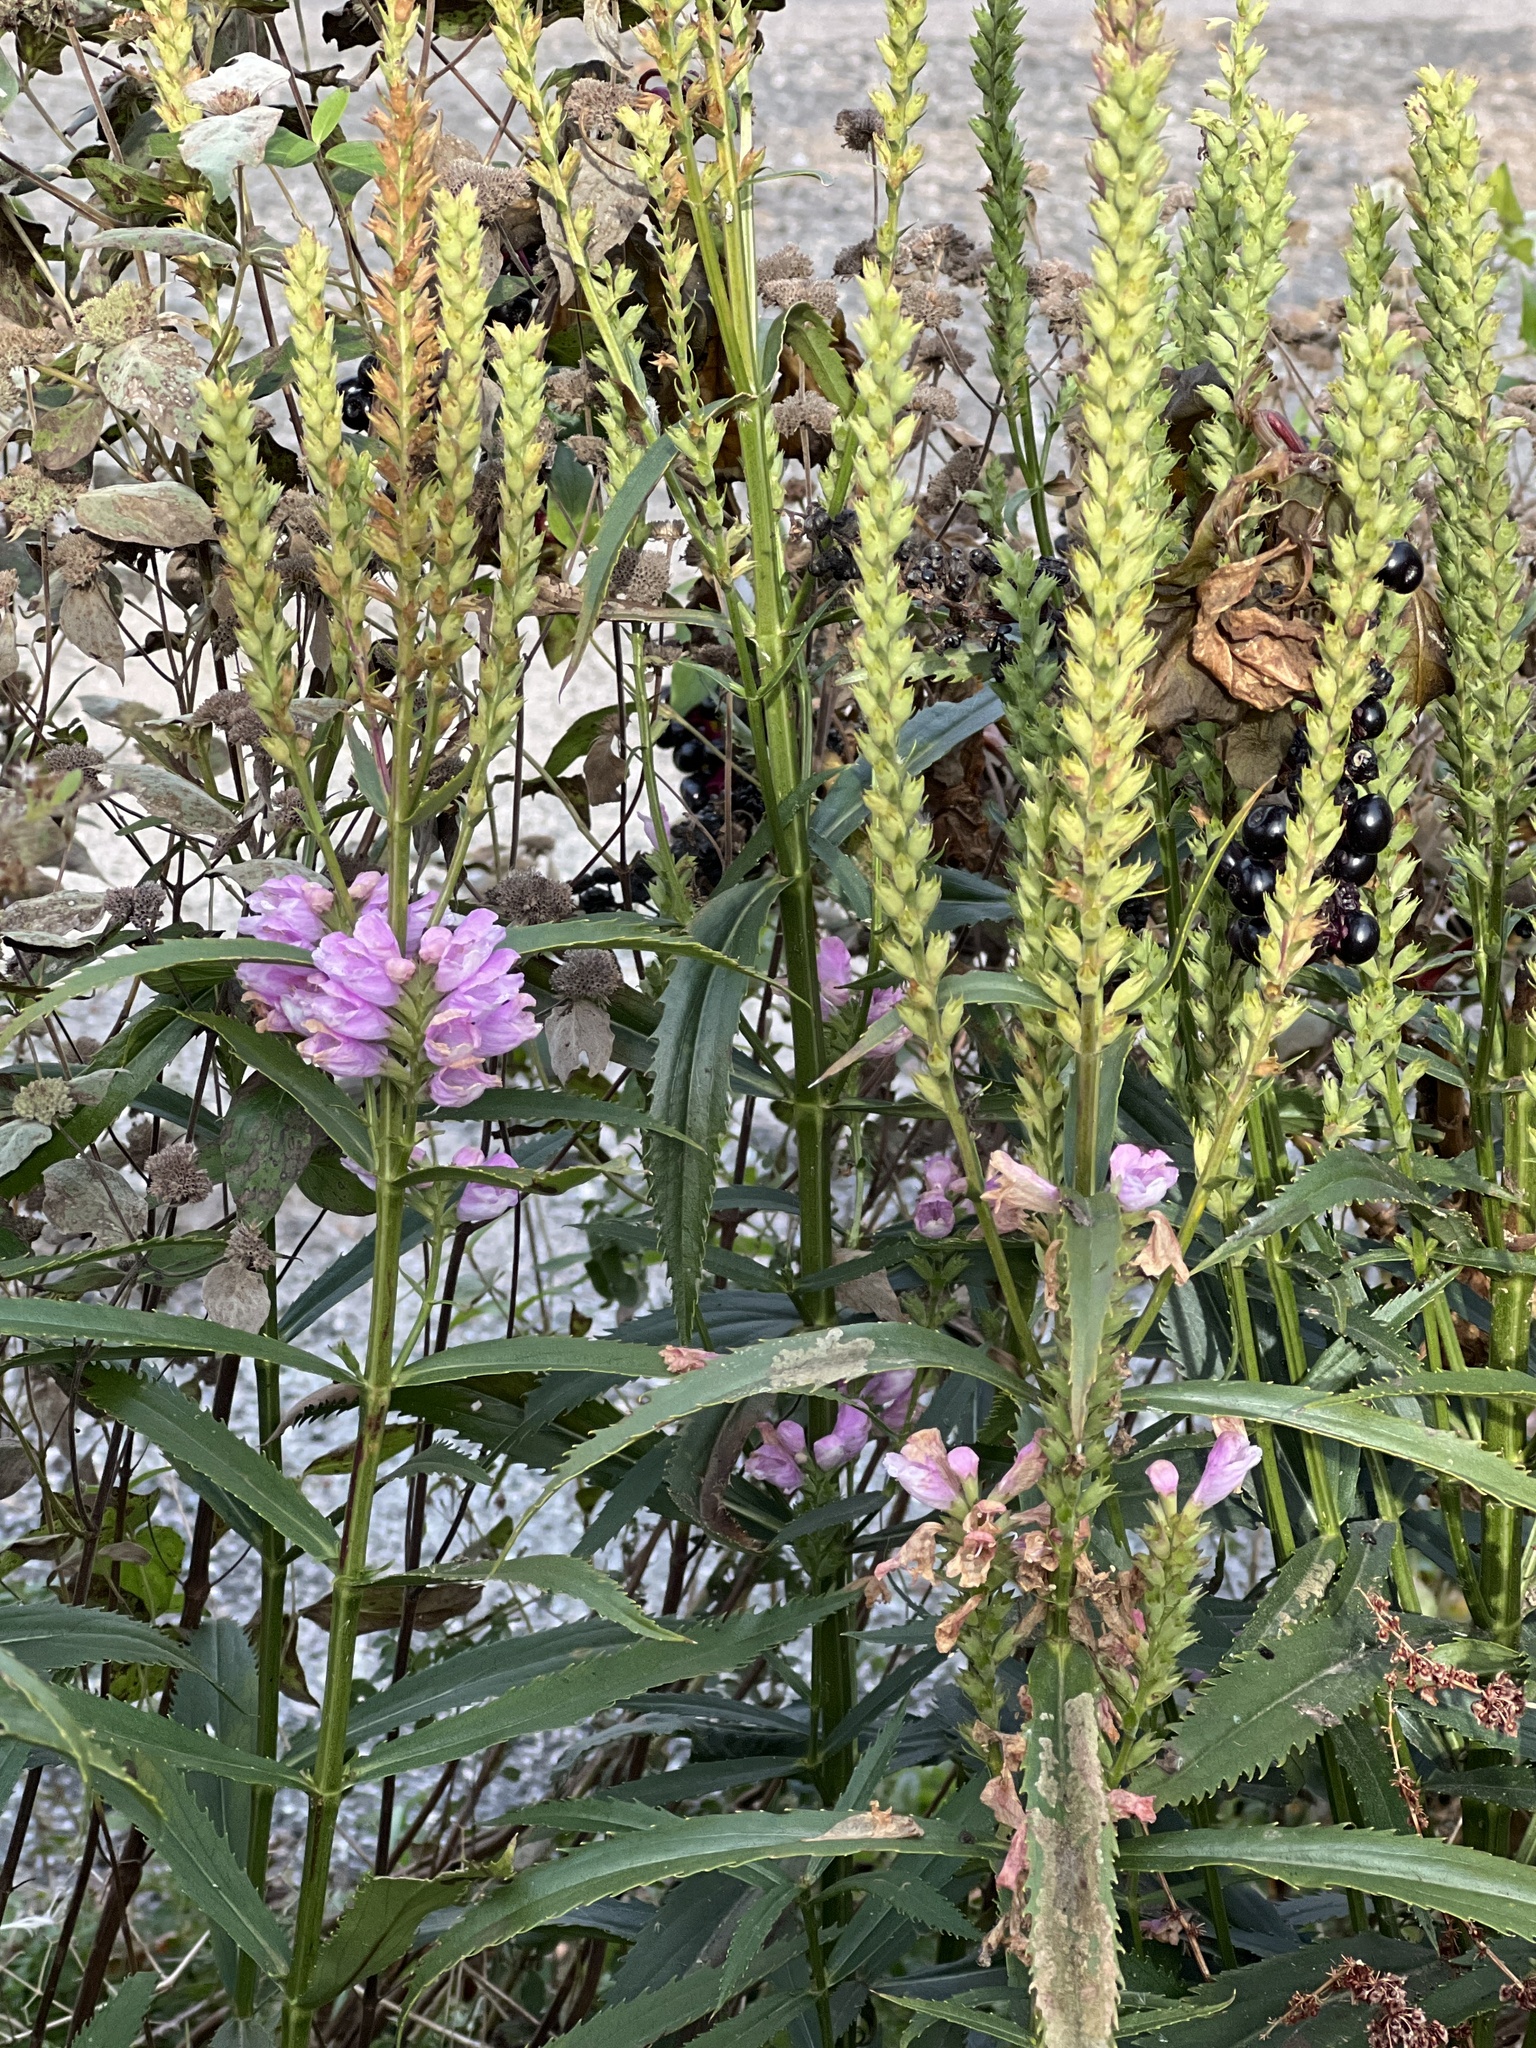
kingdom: Plantae
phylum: Tracheophyta
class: Magnoliopsida
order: Lamiales
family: Lamiaceae
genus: Physostegia
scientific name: Physostegia virginiana
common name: Obedient-plant
